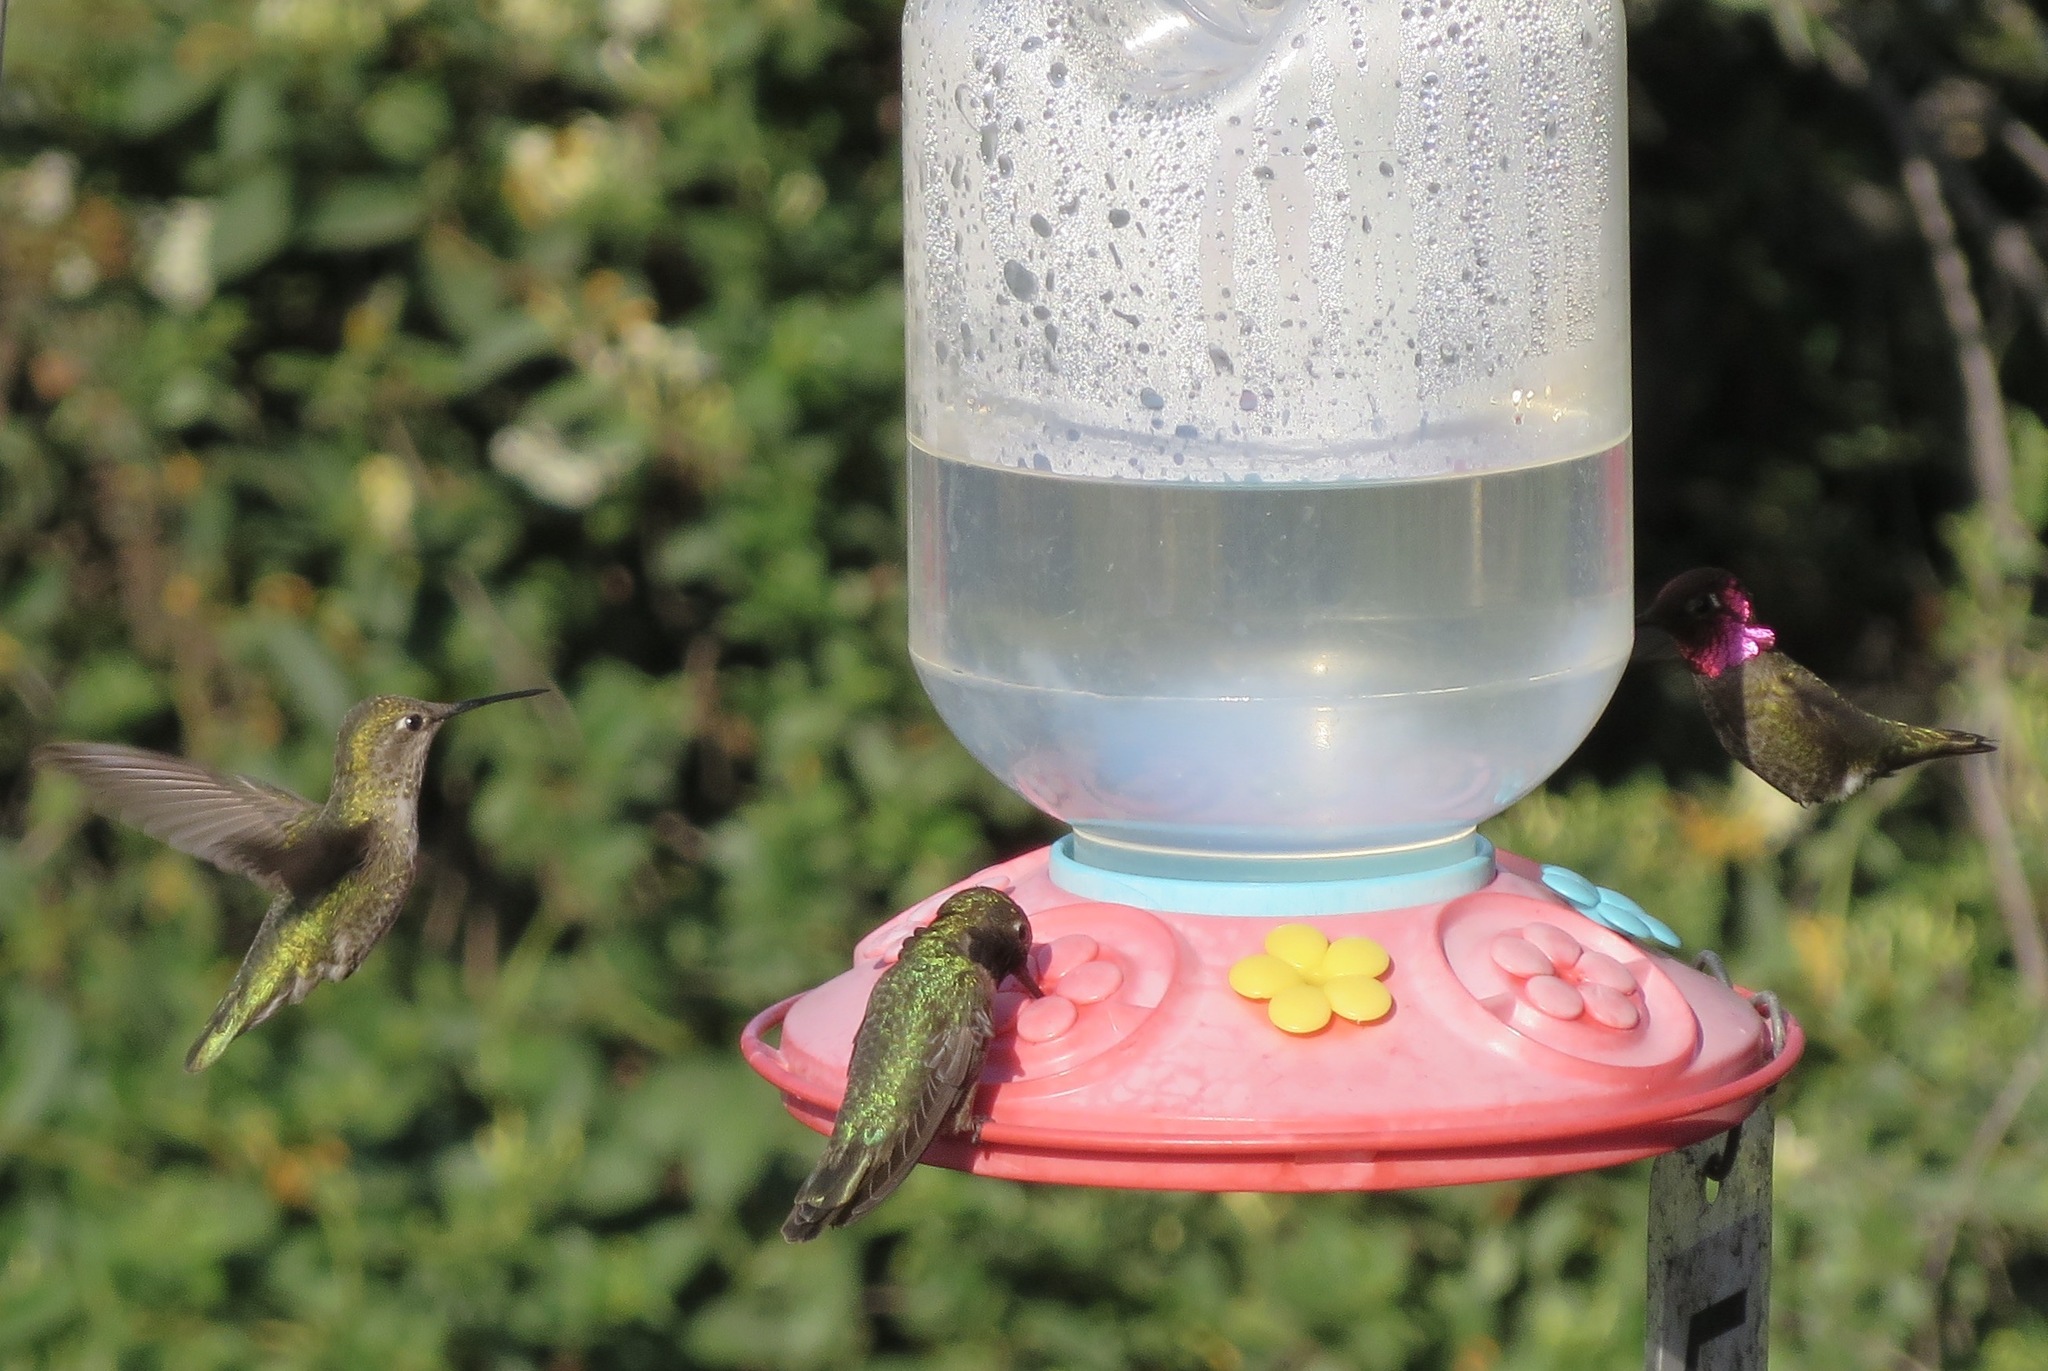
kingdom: Animalia
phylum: Chordata
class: Aves
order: Apodiformes
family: Trochilidae
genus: Calypte
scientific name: Calypte anna
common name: Anna's hummingbird
